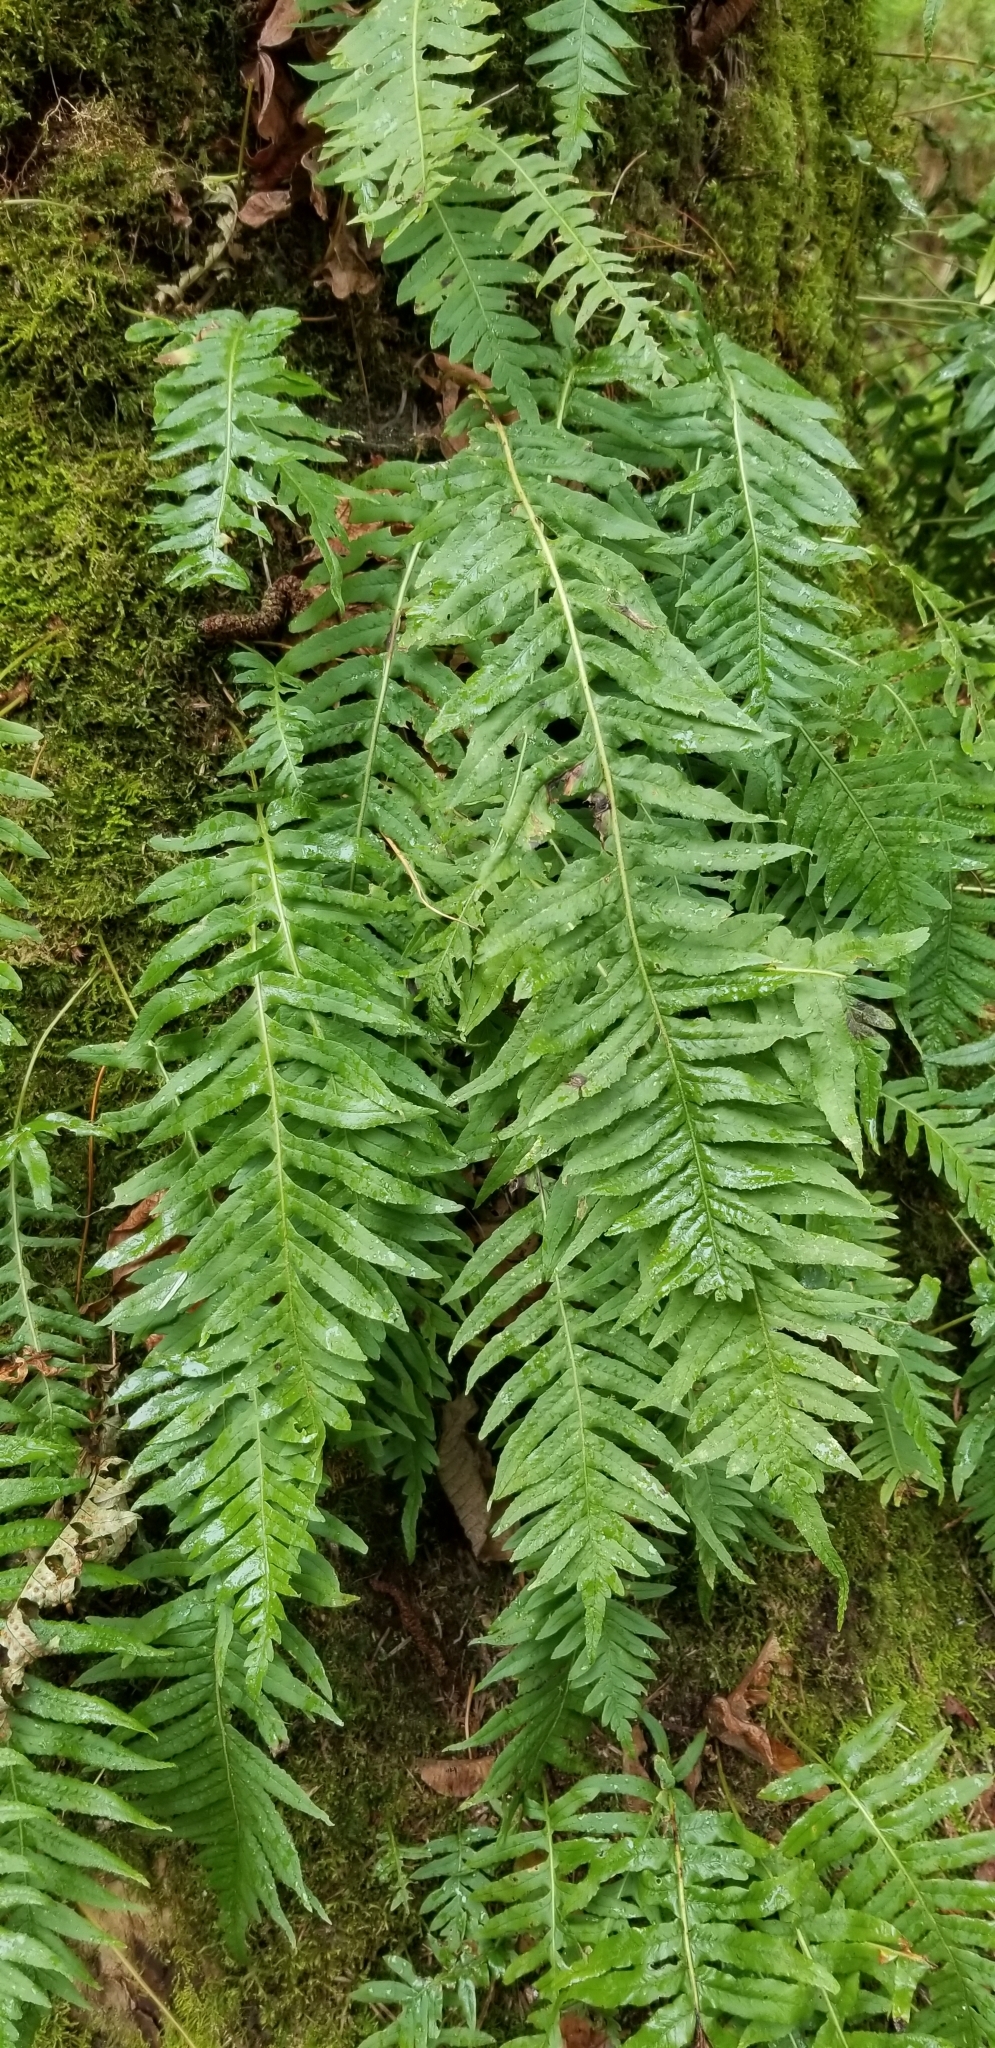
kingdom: Plantae
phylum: Tracheophyta
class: Polypodiopsida
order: Polypodiales
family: Polypodiaceae
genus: Polypodium
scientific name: Polypodium glycyrrhiza
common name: Licorice fern
